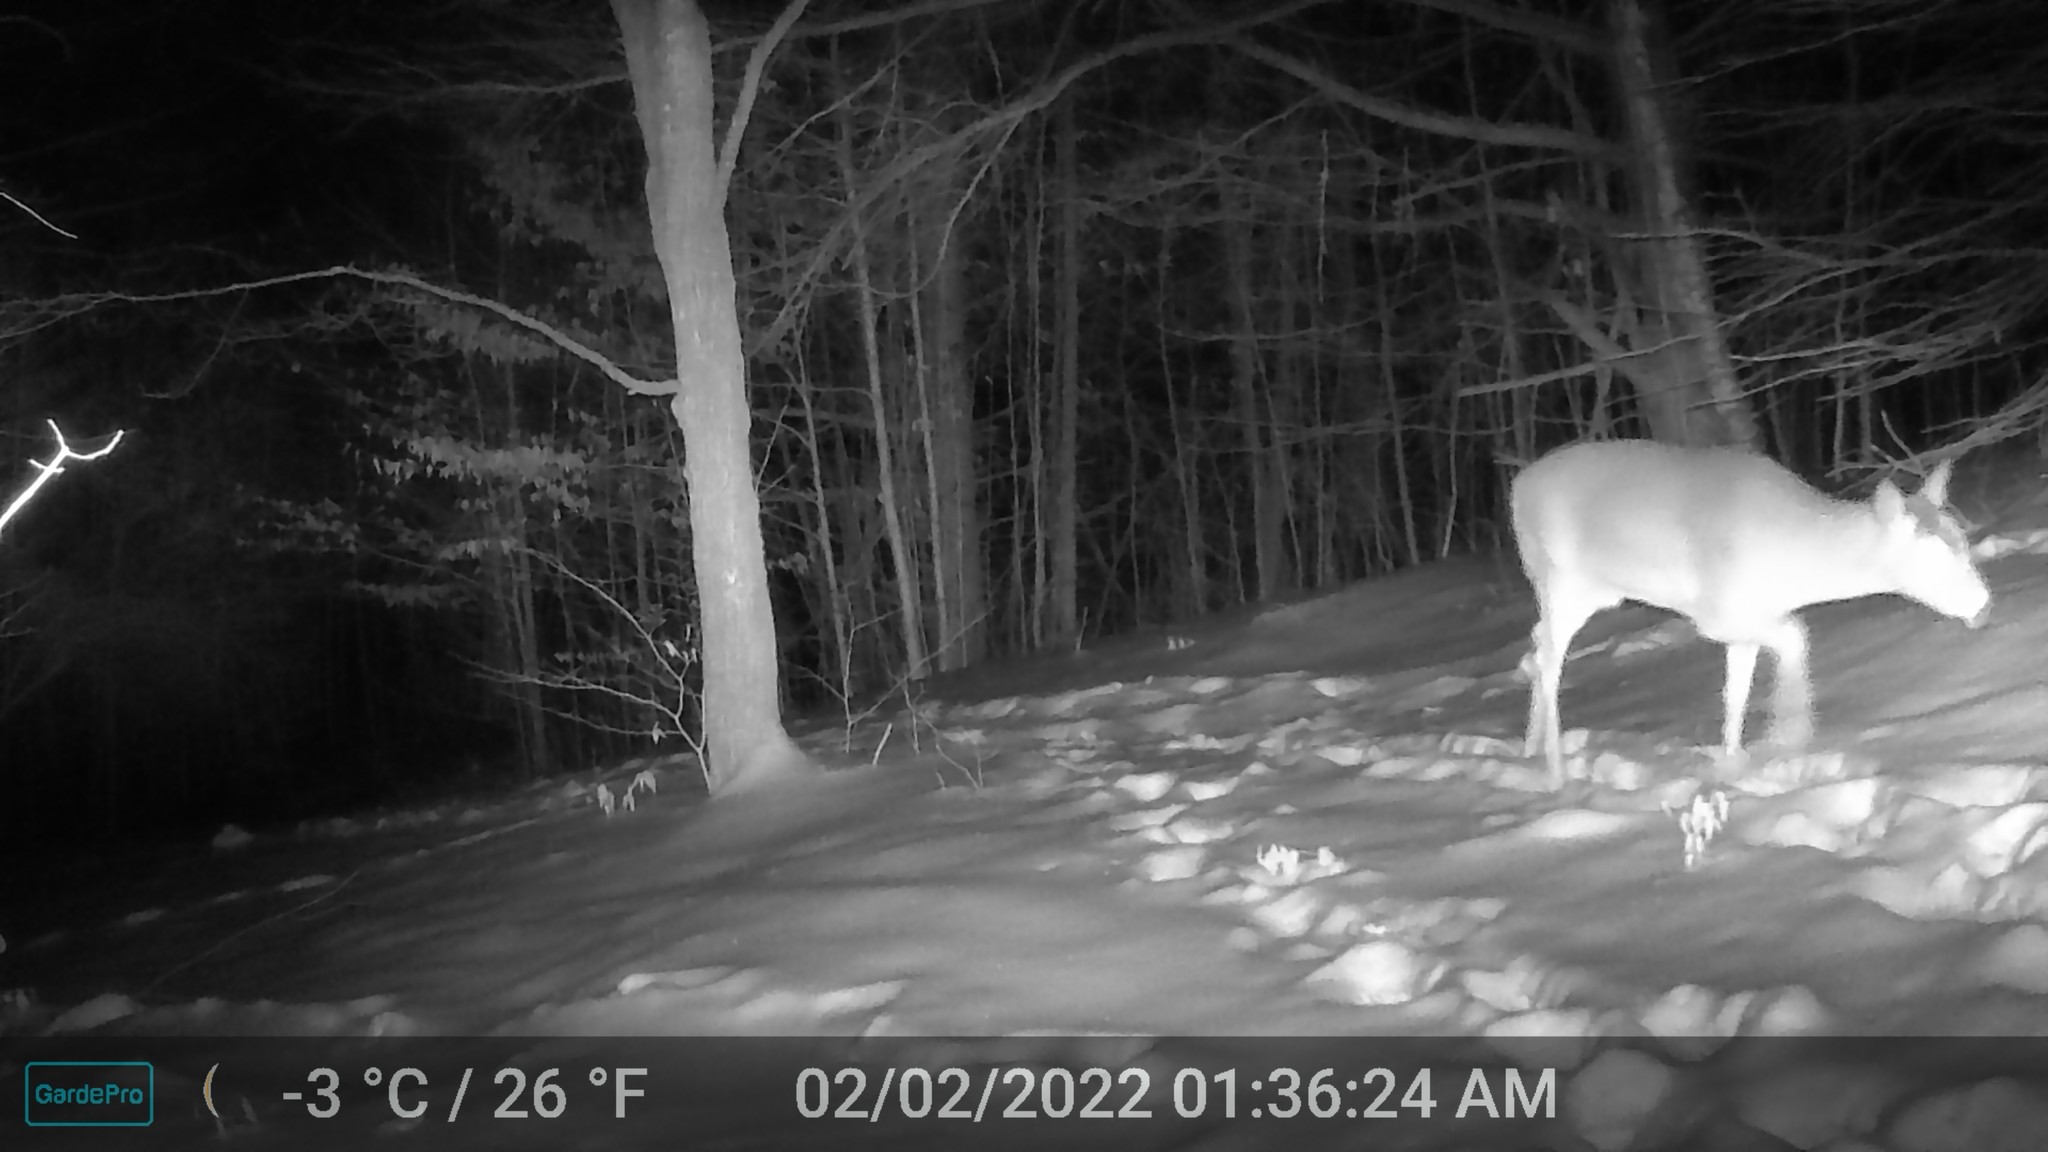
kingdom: Animalia
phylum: Chordata
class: Mammalia
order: Artiodactyla
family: Cervidae
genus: Odocoileus
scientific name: Odocoileus virginianus
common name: White-tailed deer
